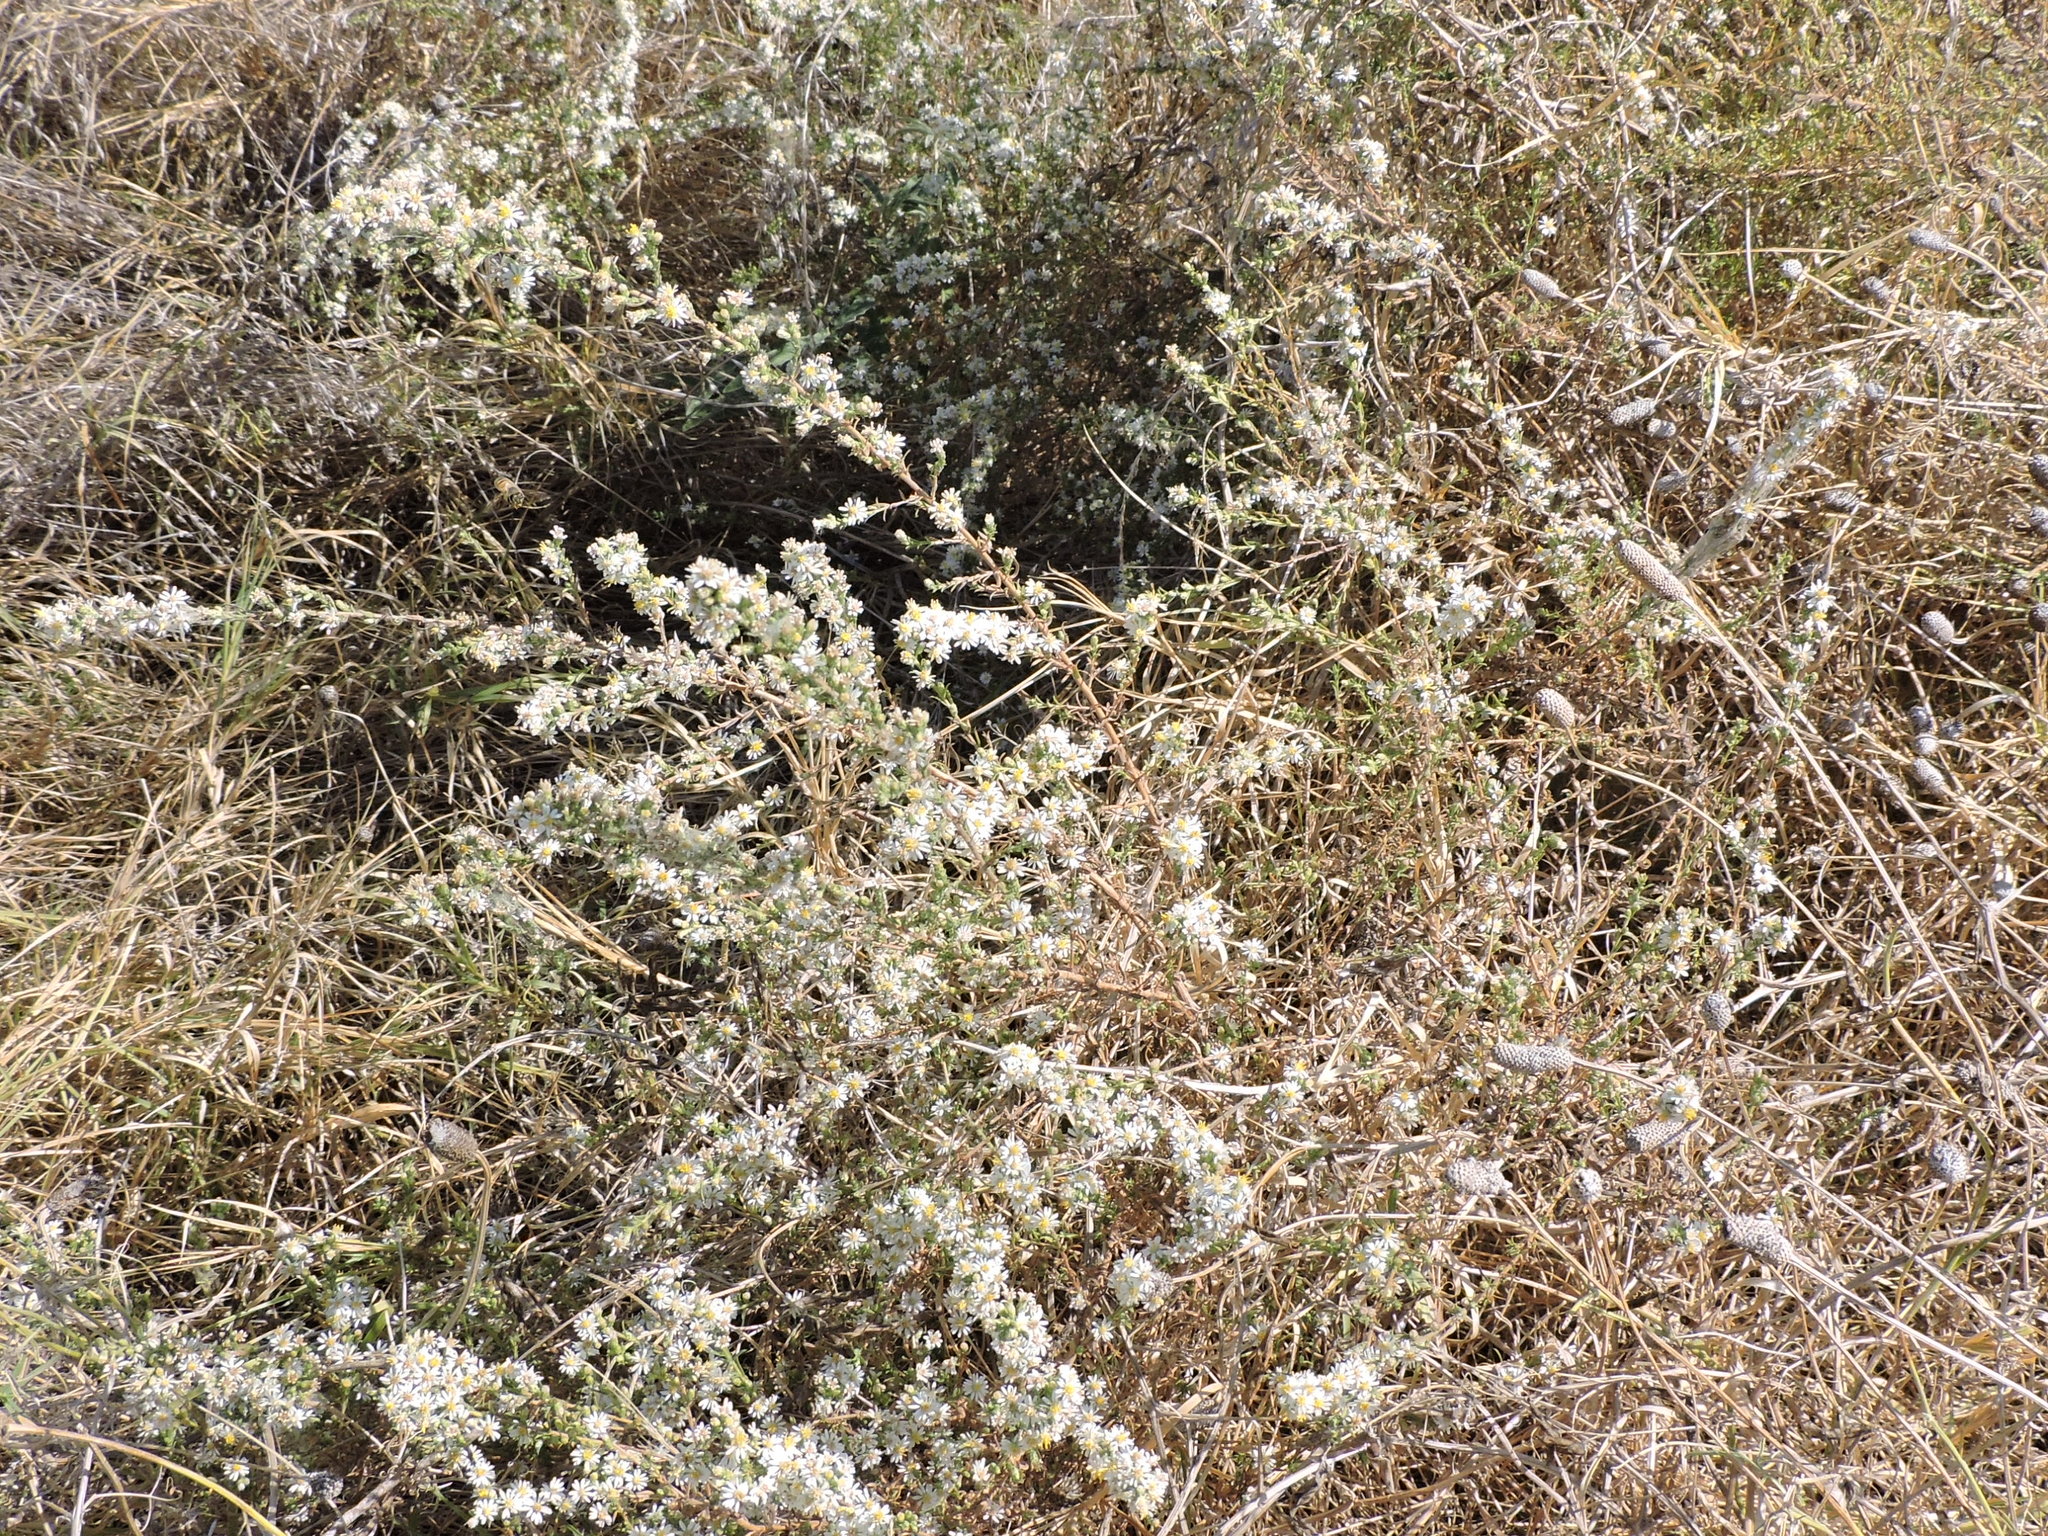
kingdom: Plantae
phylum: Tracheophyta
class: Magnoliopsida
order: Asterales
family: Asteraceae
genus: Symphyotrichum
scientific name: Symphyotrichum ericoides
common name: Heath aster
